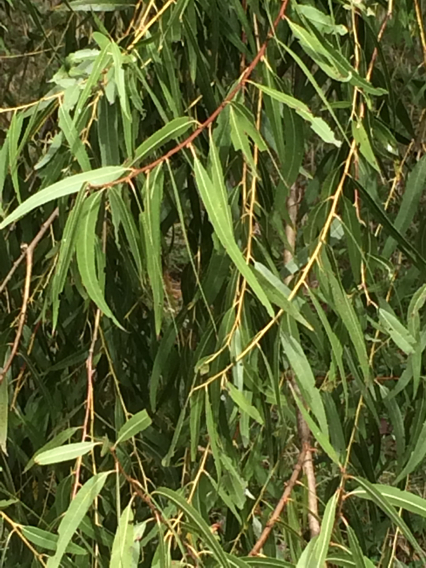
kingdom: Plantae
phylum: Tracheophyta
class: Magnoliopsida
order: Malpighiales
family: Salicaceae
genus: Salix
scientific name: Salix nigra
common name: Black willow
